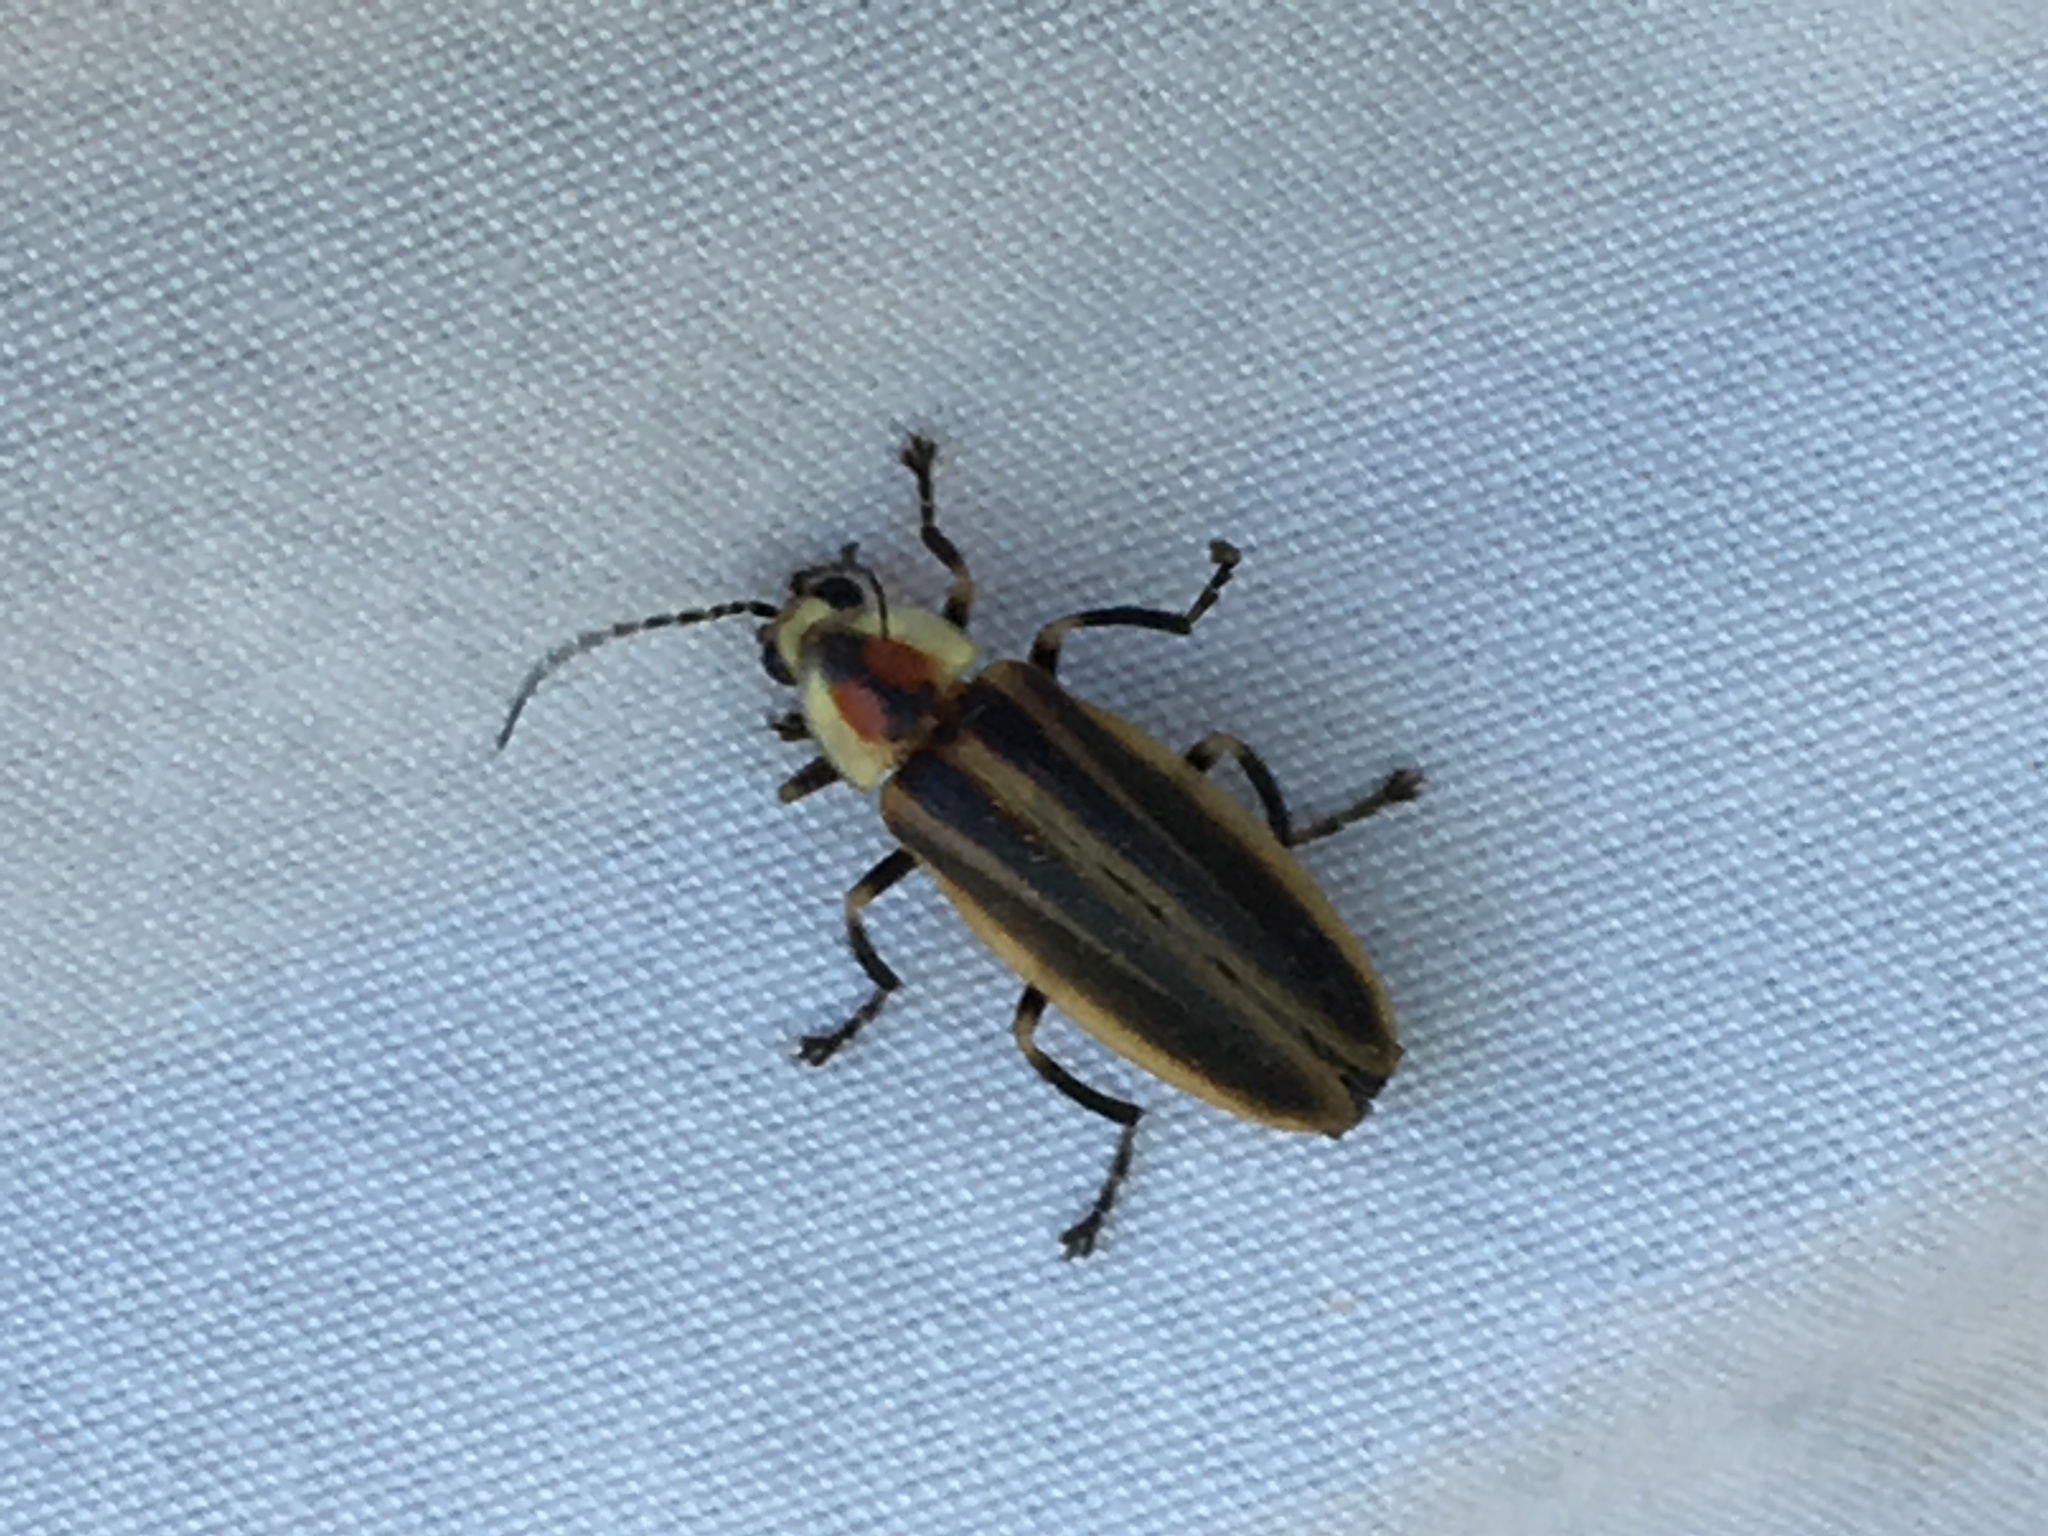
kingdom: Animalia
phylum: Arthropoda
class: Insecta
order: Coleoptera
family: Lampyridae
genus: Photuris
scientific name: Photuris
